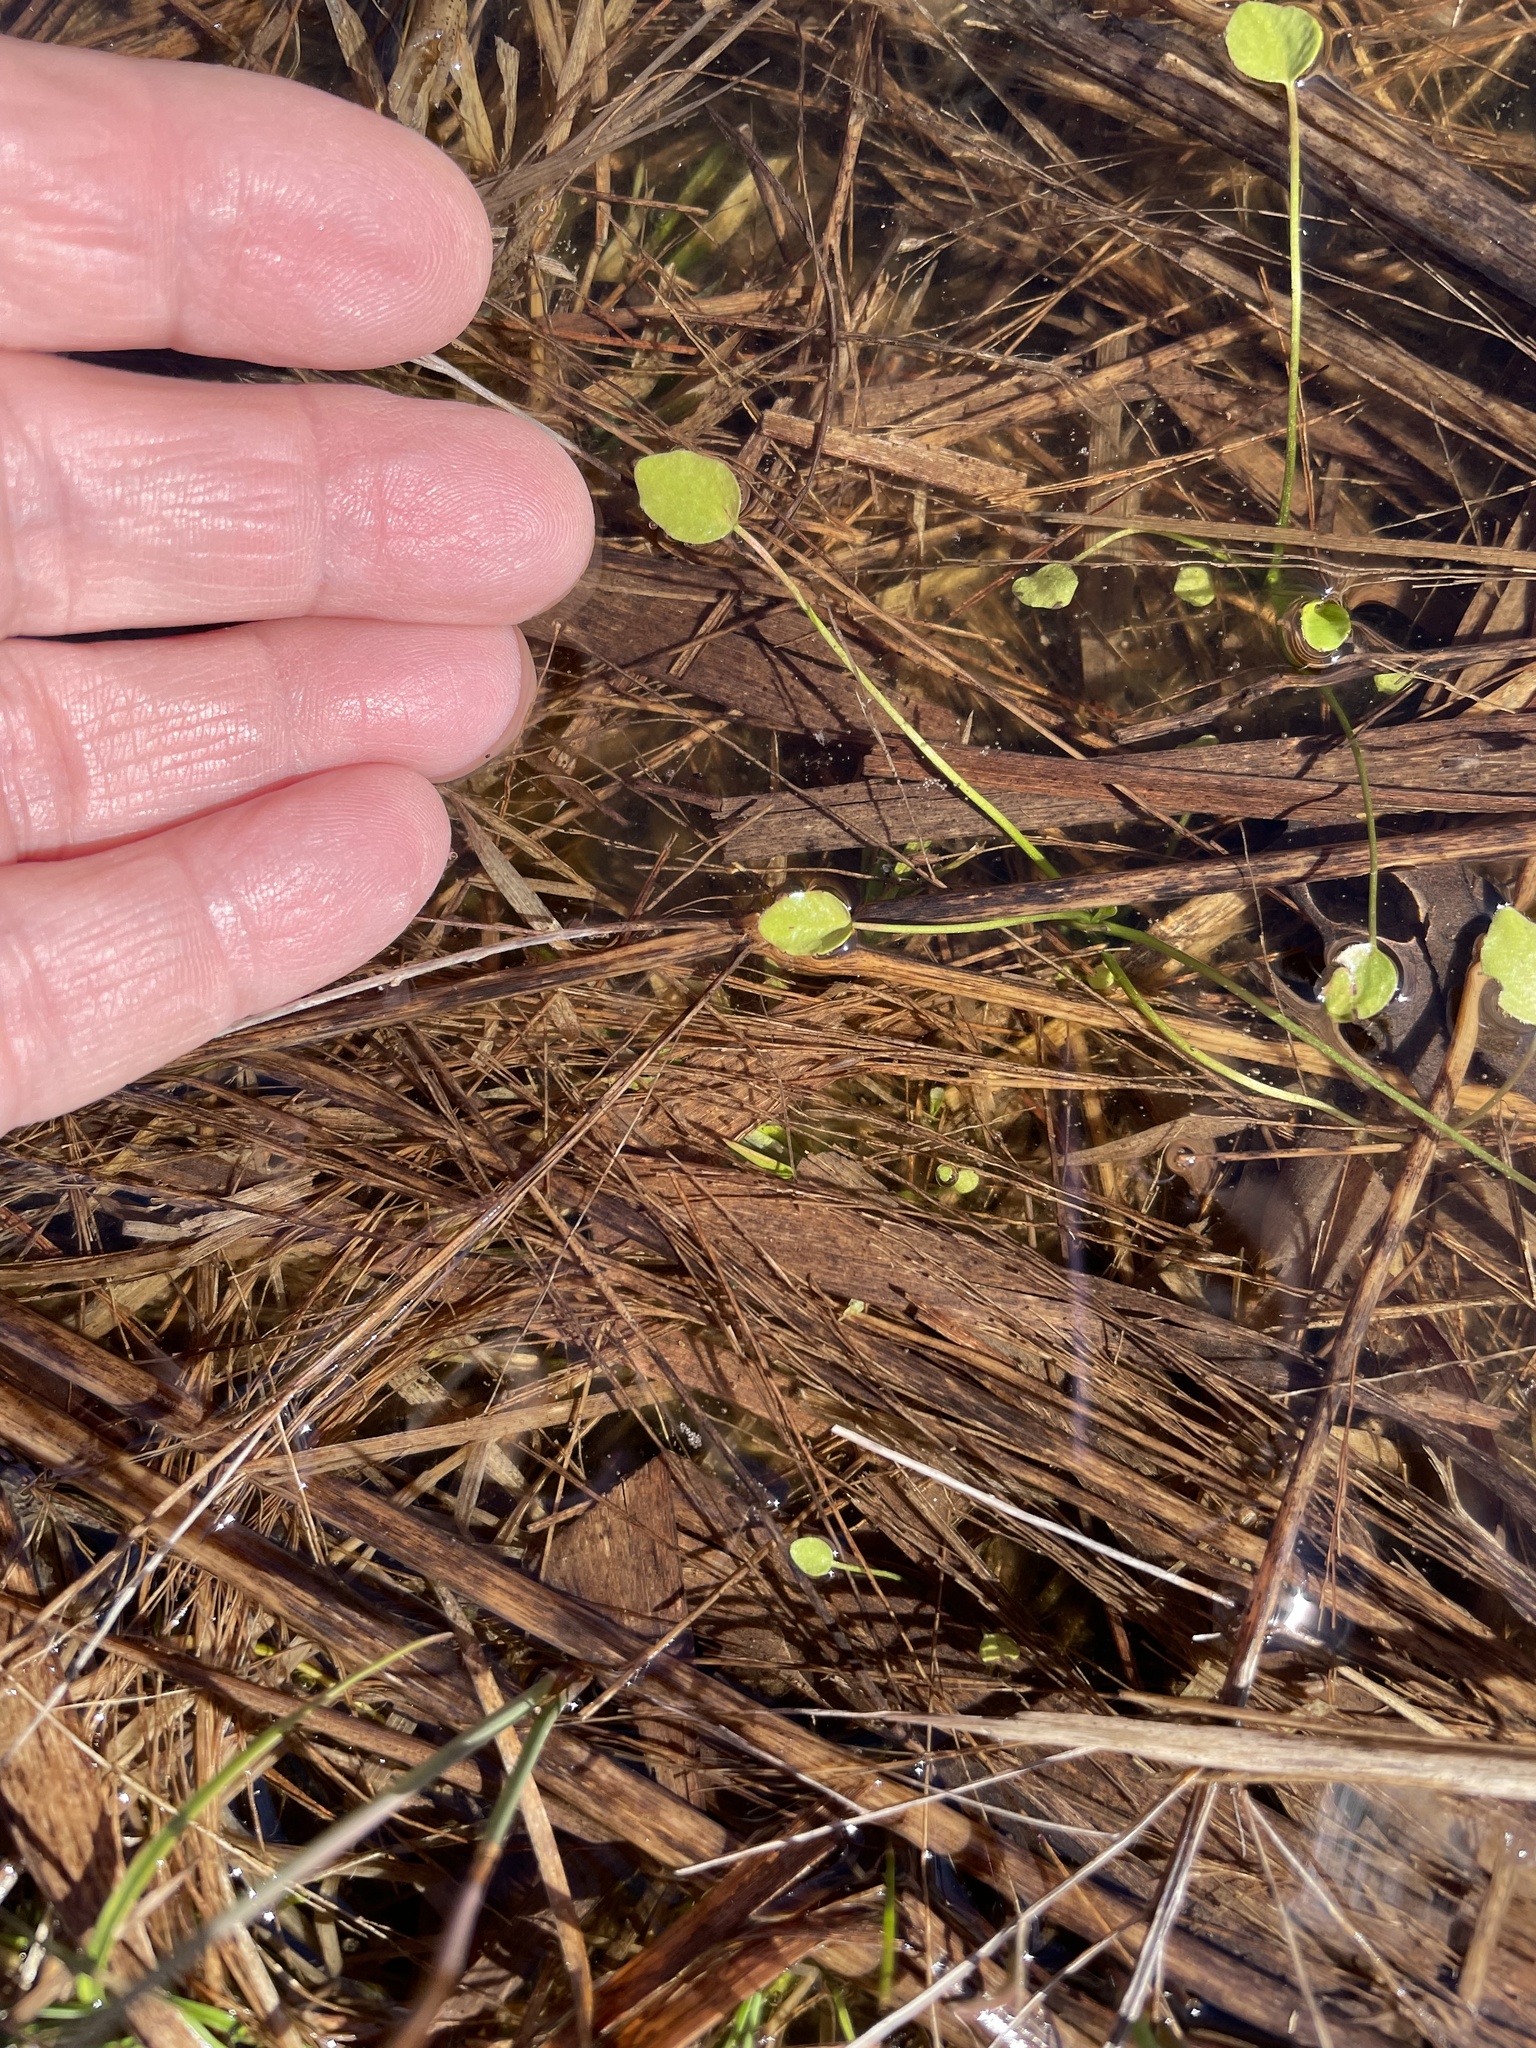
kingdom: Plantae
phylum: Tracheophyta
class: Magnoliopsida
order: Ranunculales
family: Ranunculaceae
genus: Ranunculus
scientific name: Ranunculus pusillus
